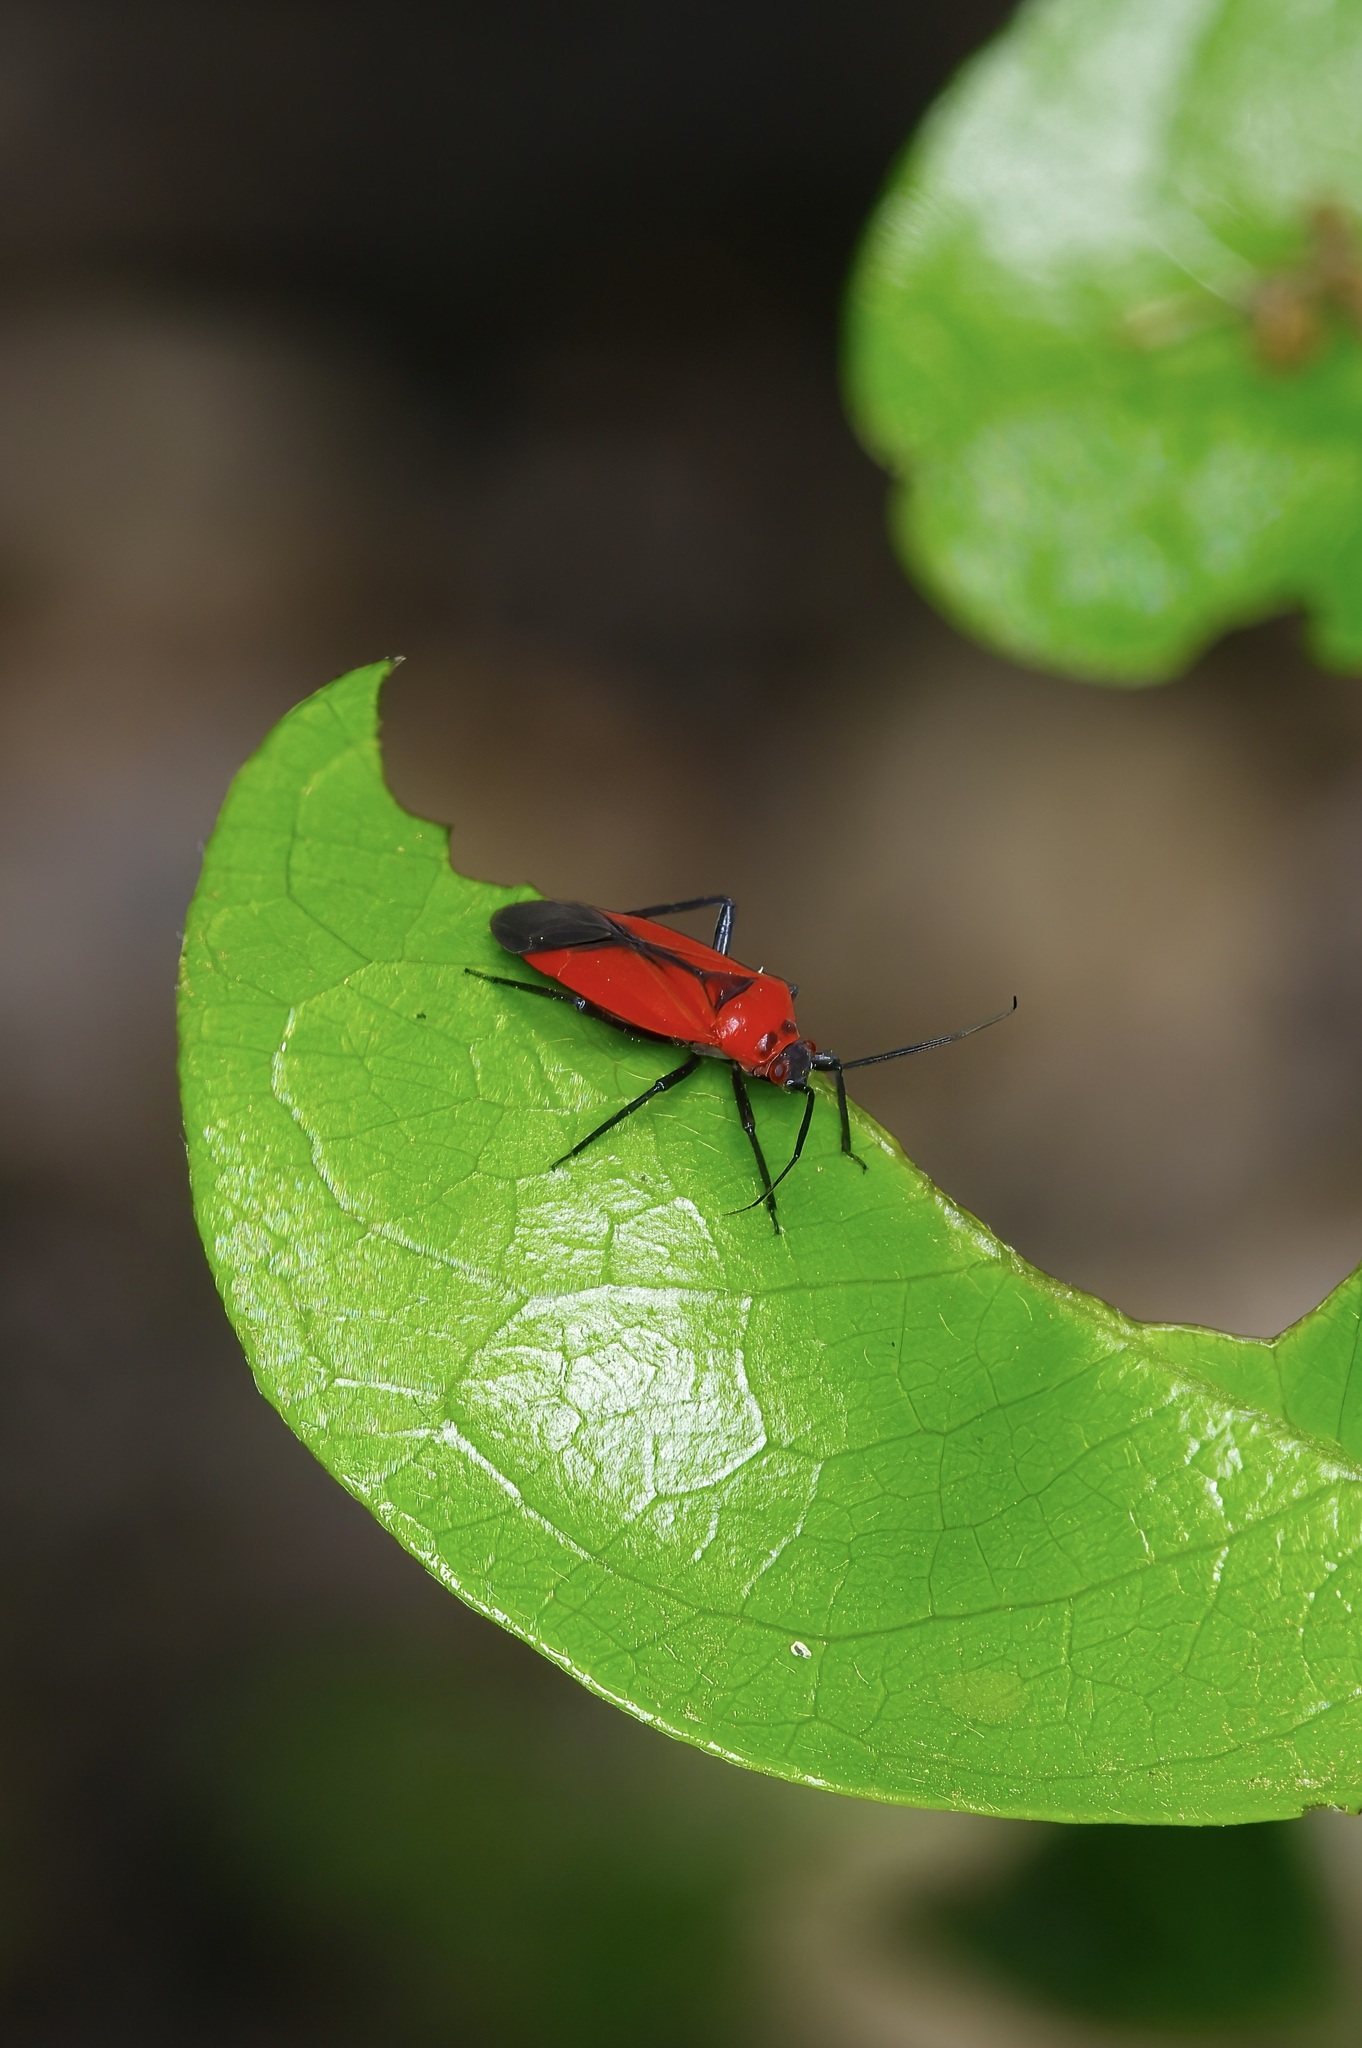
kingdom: Animalia
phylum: Arthropoda
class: Insecta
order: Hemiptera
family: Miridae
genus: Lopidea
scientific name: Lopidea major
